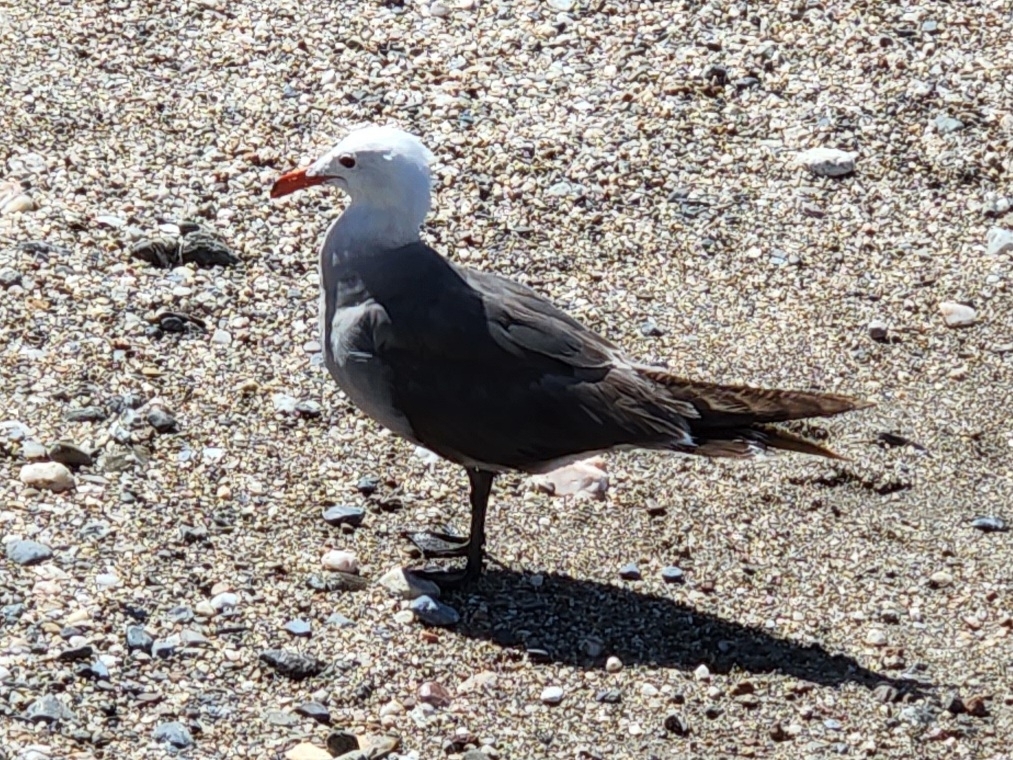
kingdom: Animalia
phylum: Chordata
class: Aves
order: Charadriiformes
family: Laridae
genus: Larus
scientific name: Larus heermanni
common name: Heermann's gull
